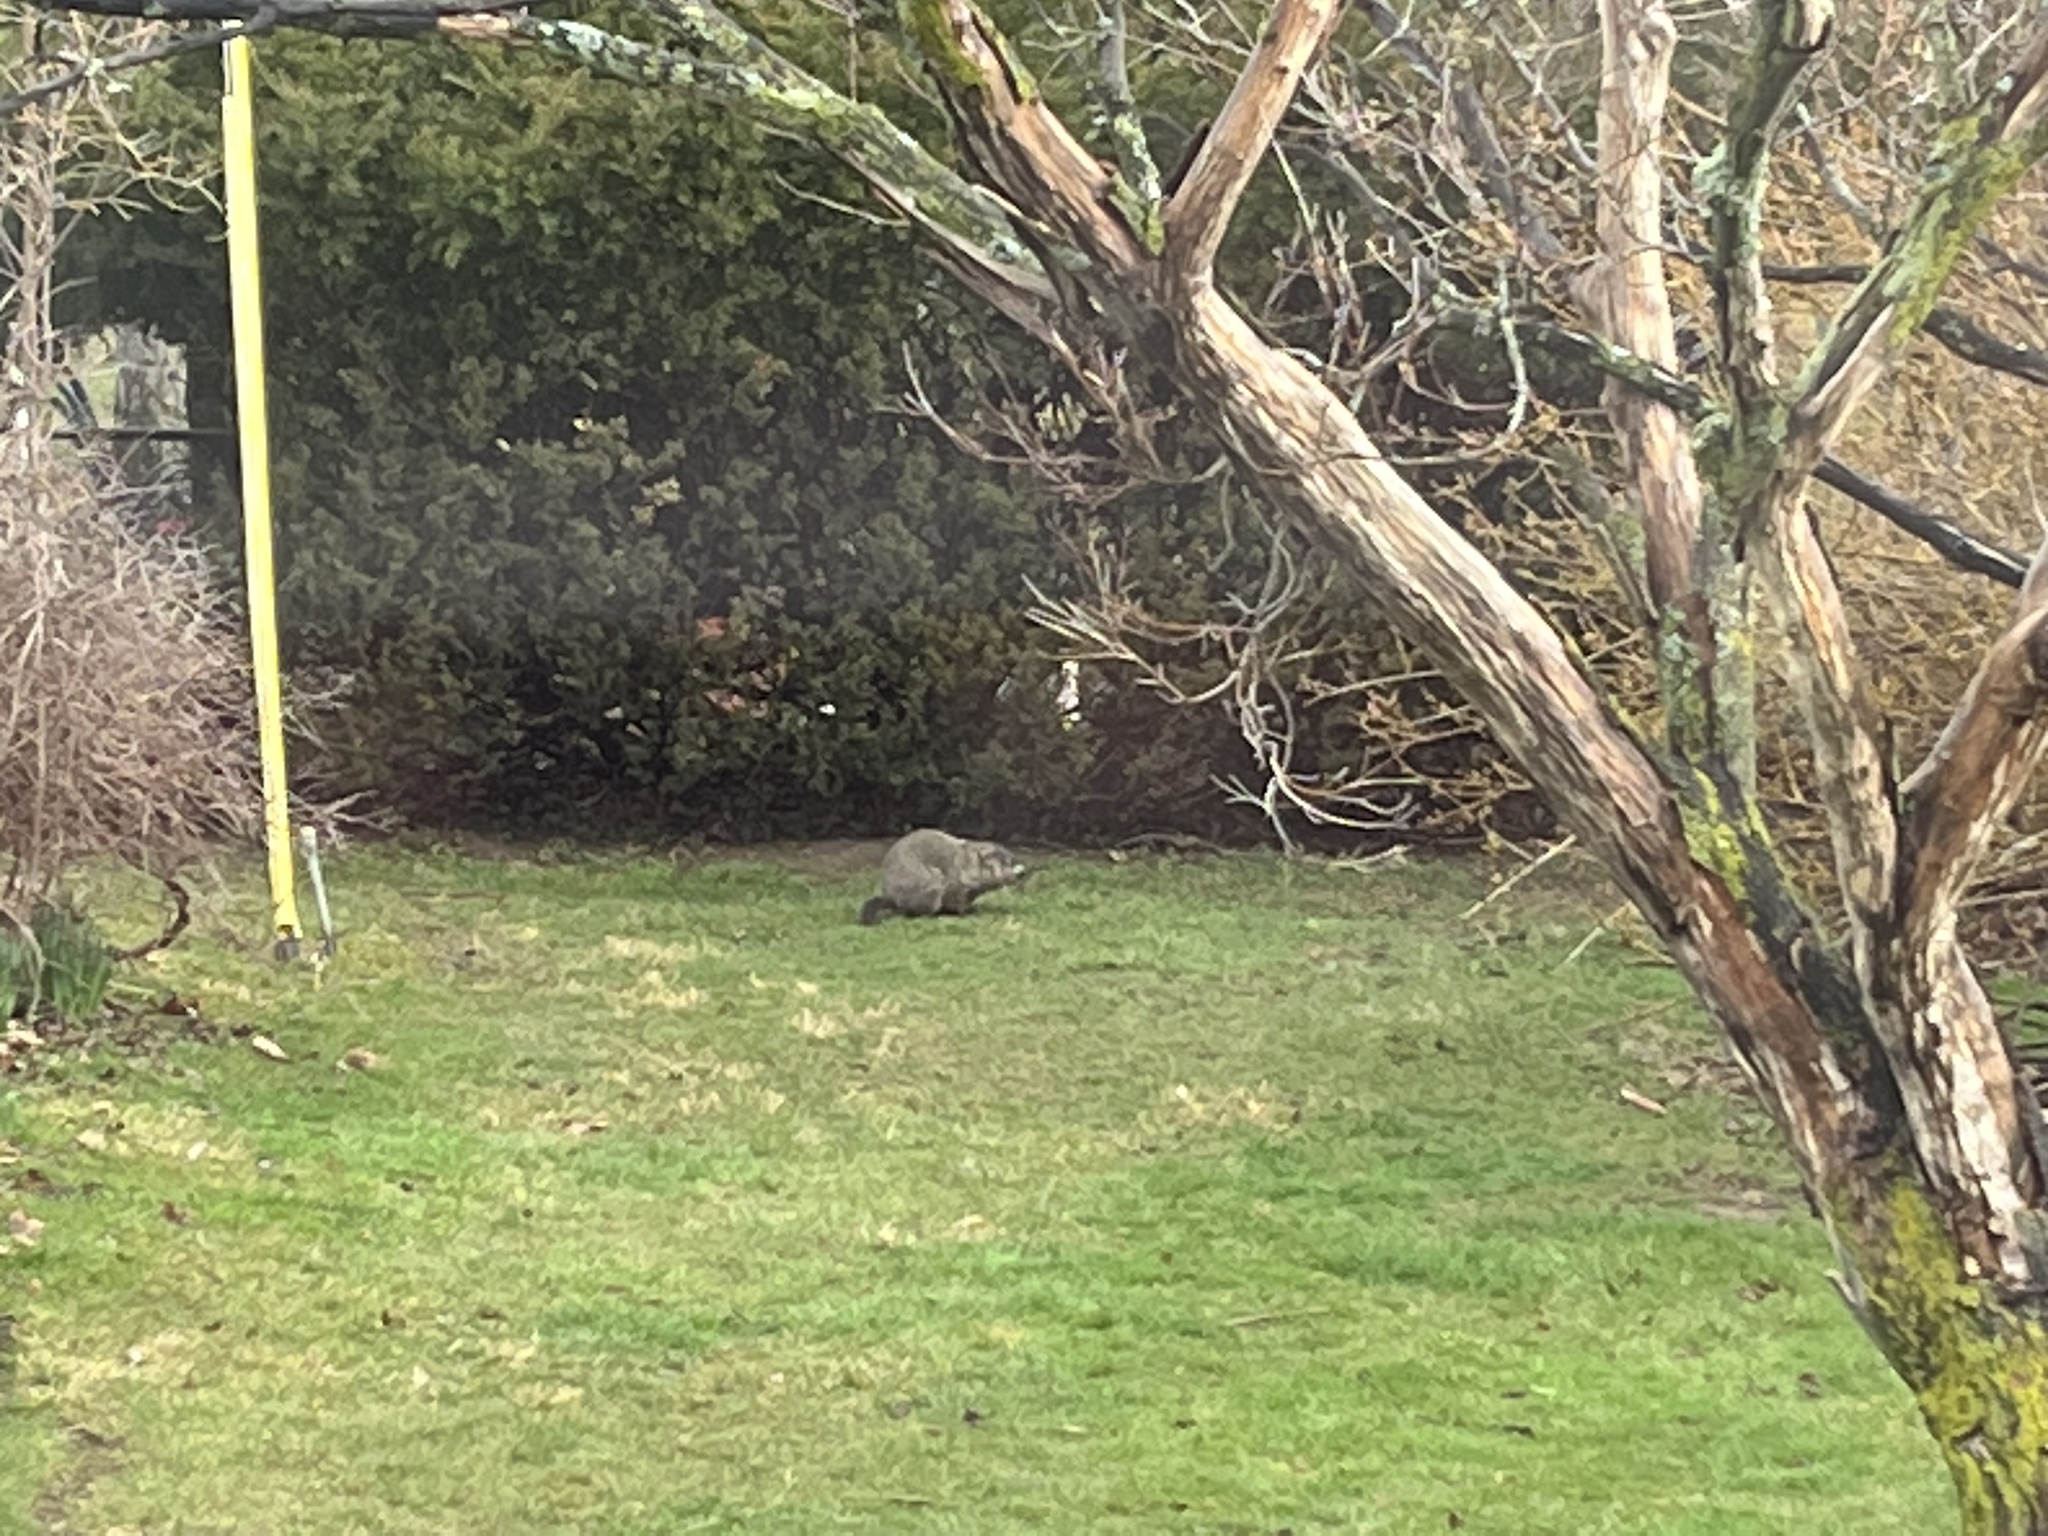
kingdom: Animalia
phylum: Chordata
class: Mammalia
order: Rodentia
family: Sciuridae
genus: Marmota
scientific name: Marmota monax
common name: Groundhog
